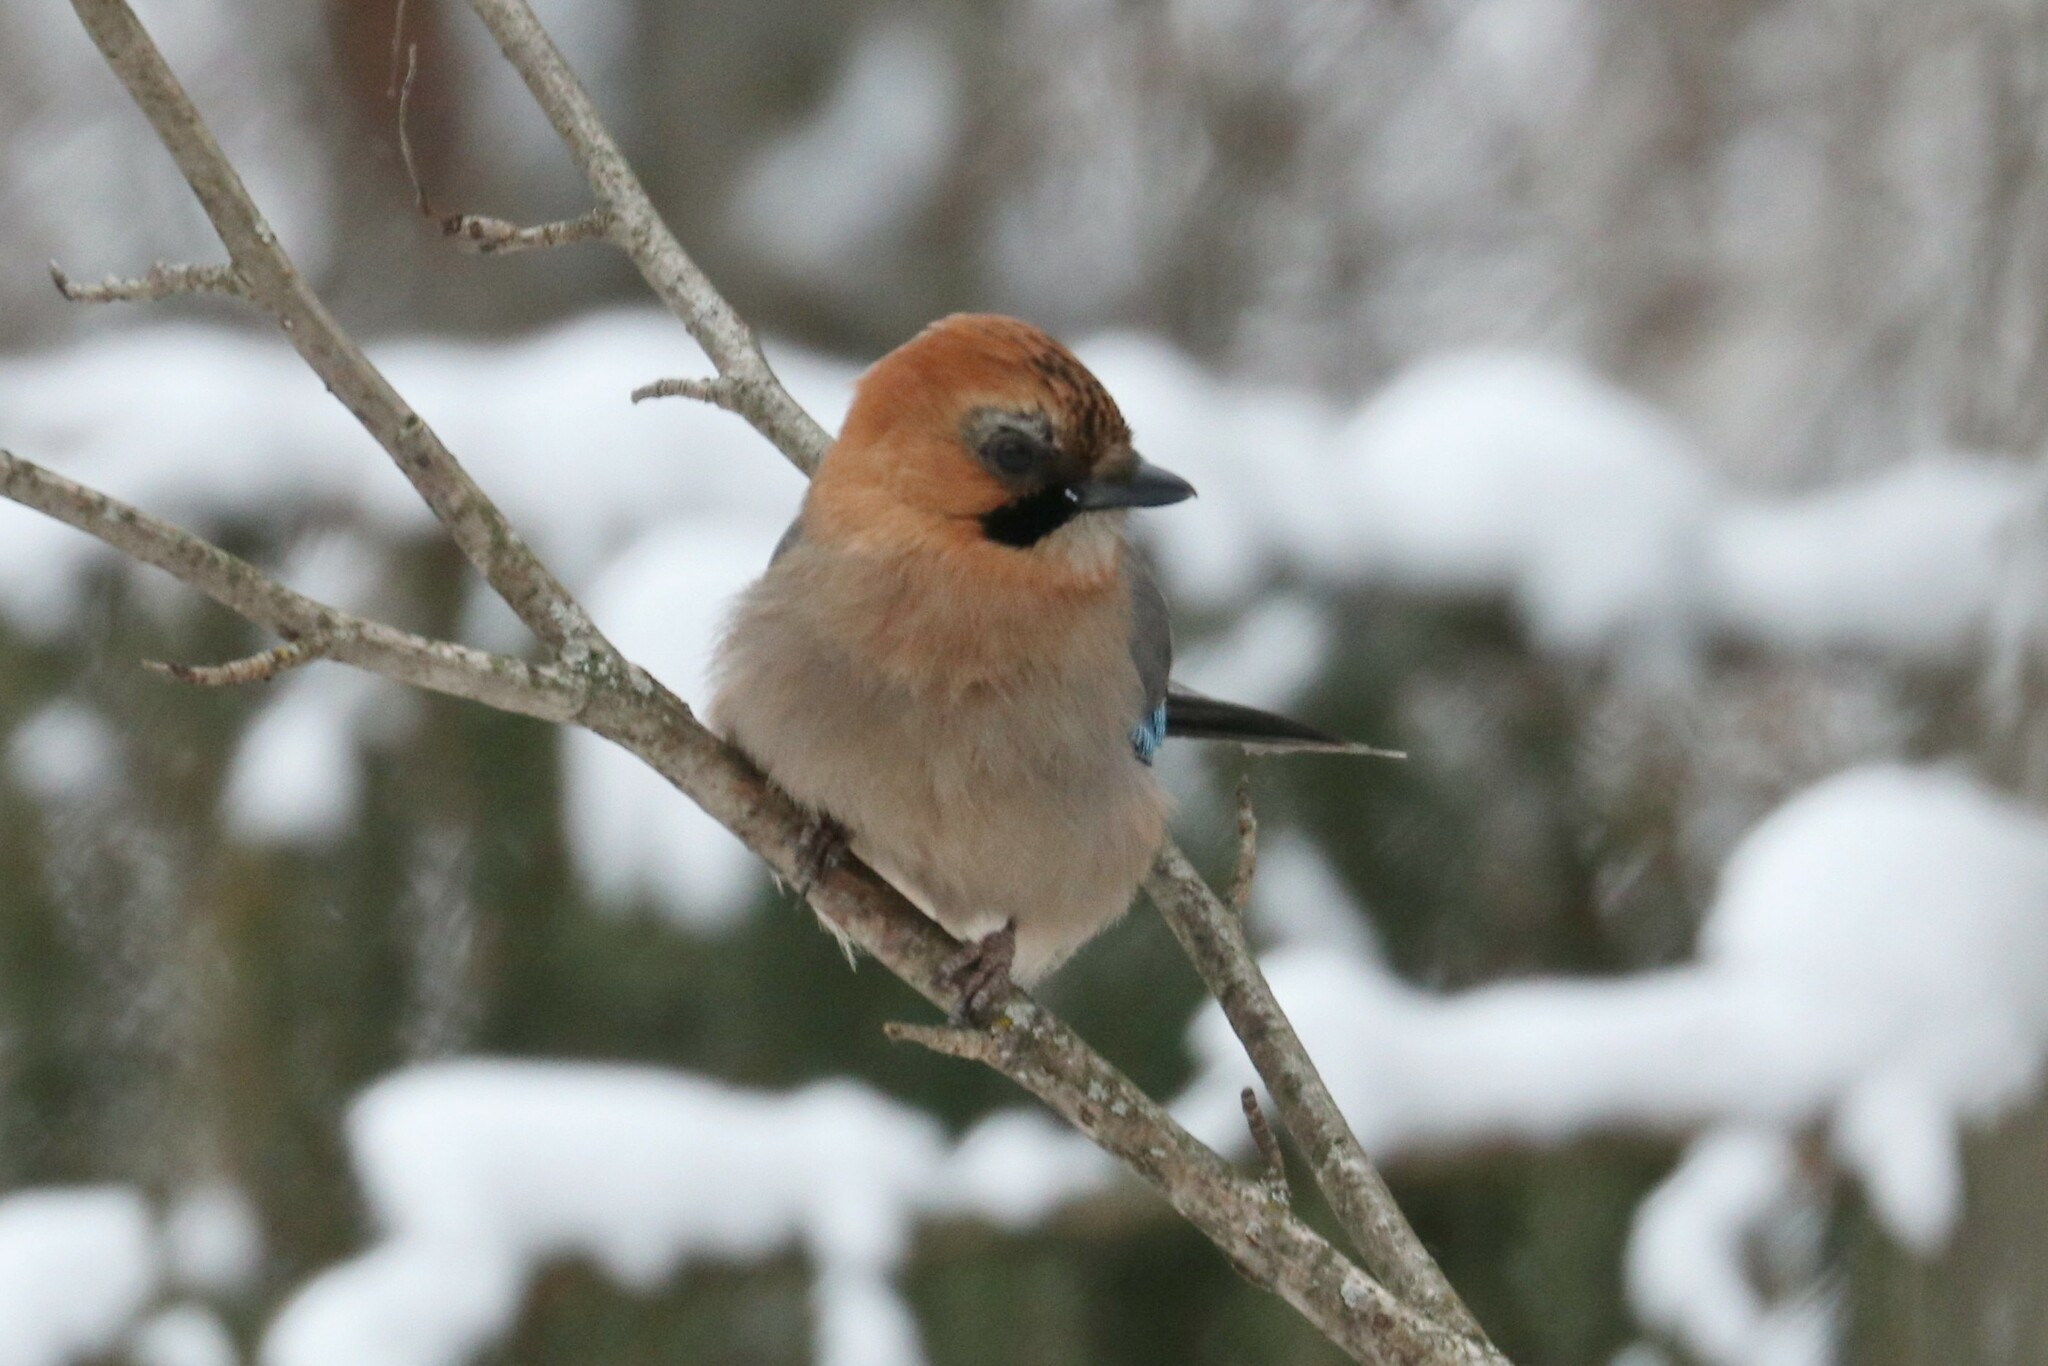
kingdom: Animalia
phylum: Chordata
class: Aves
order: Passeriformes
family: Corvidae
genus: Garrulus
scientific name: Garrulus glandarius
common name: Eurasian jay
